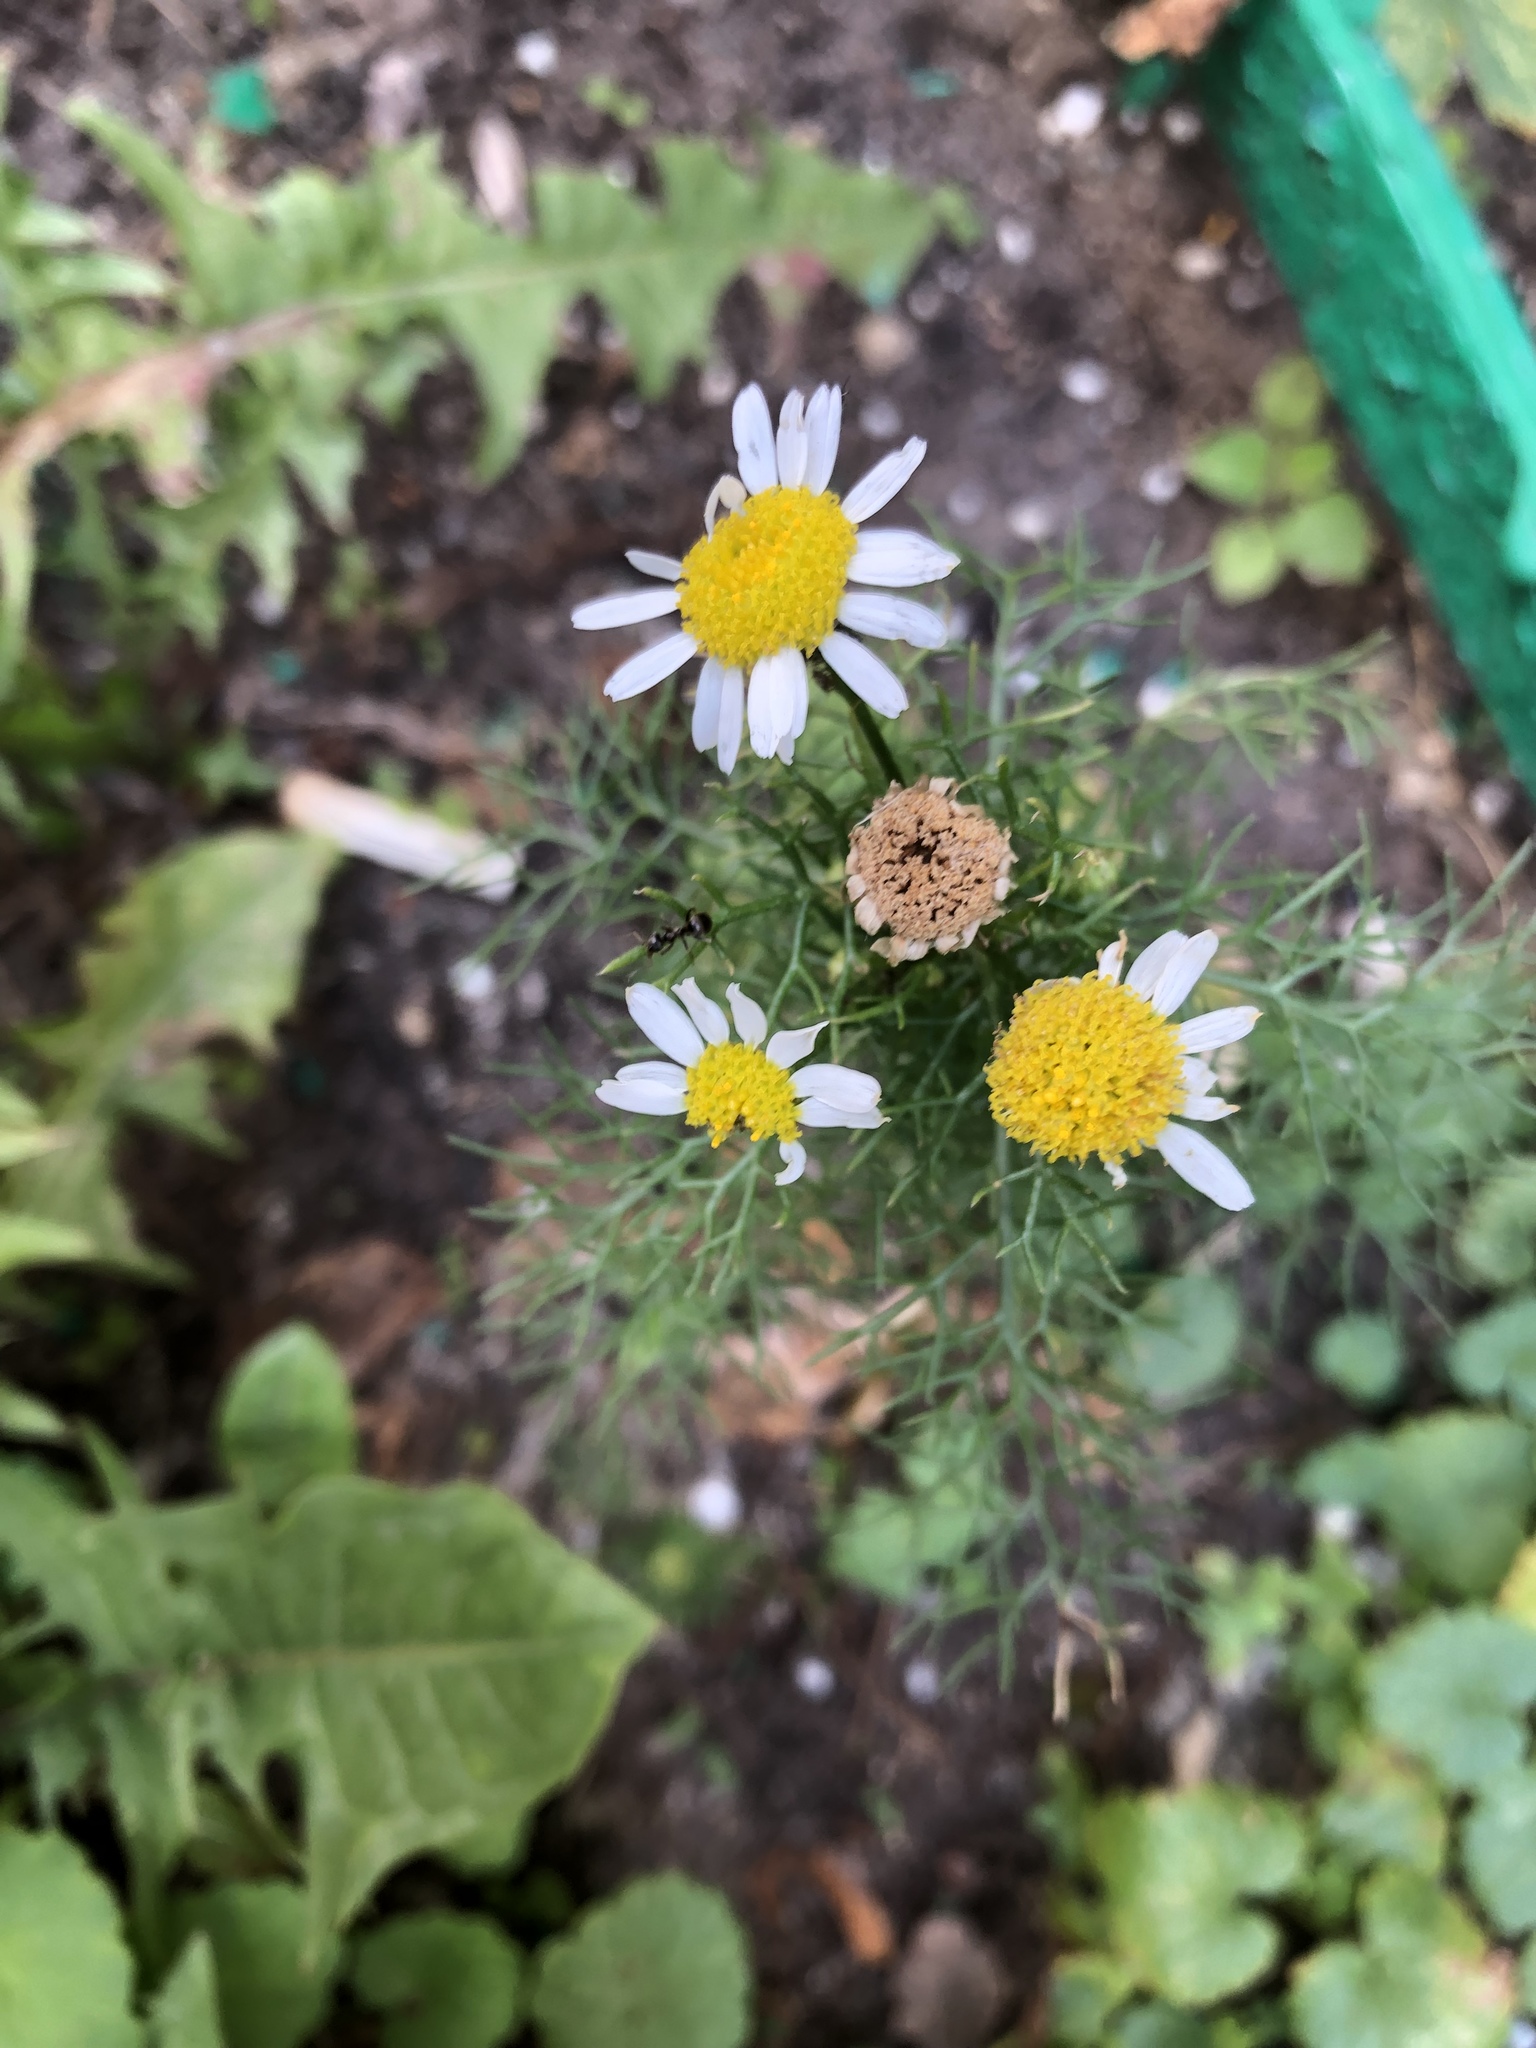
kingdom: Plantae
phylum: Tracheophyta
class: Magnoliopsida
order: Asterales
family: Asteraceae
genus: Tripleurospermum
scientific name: Tripleurospermum inodorum
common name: Scentless mayweed
